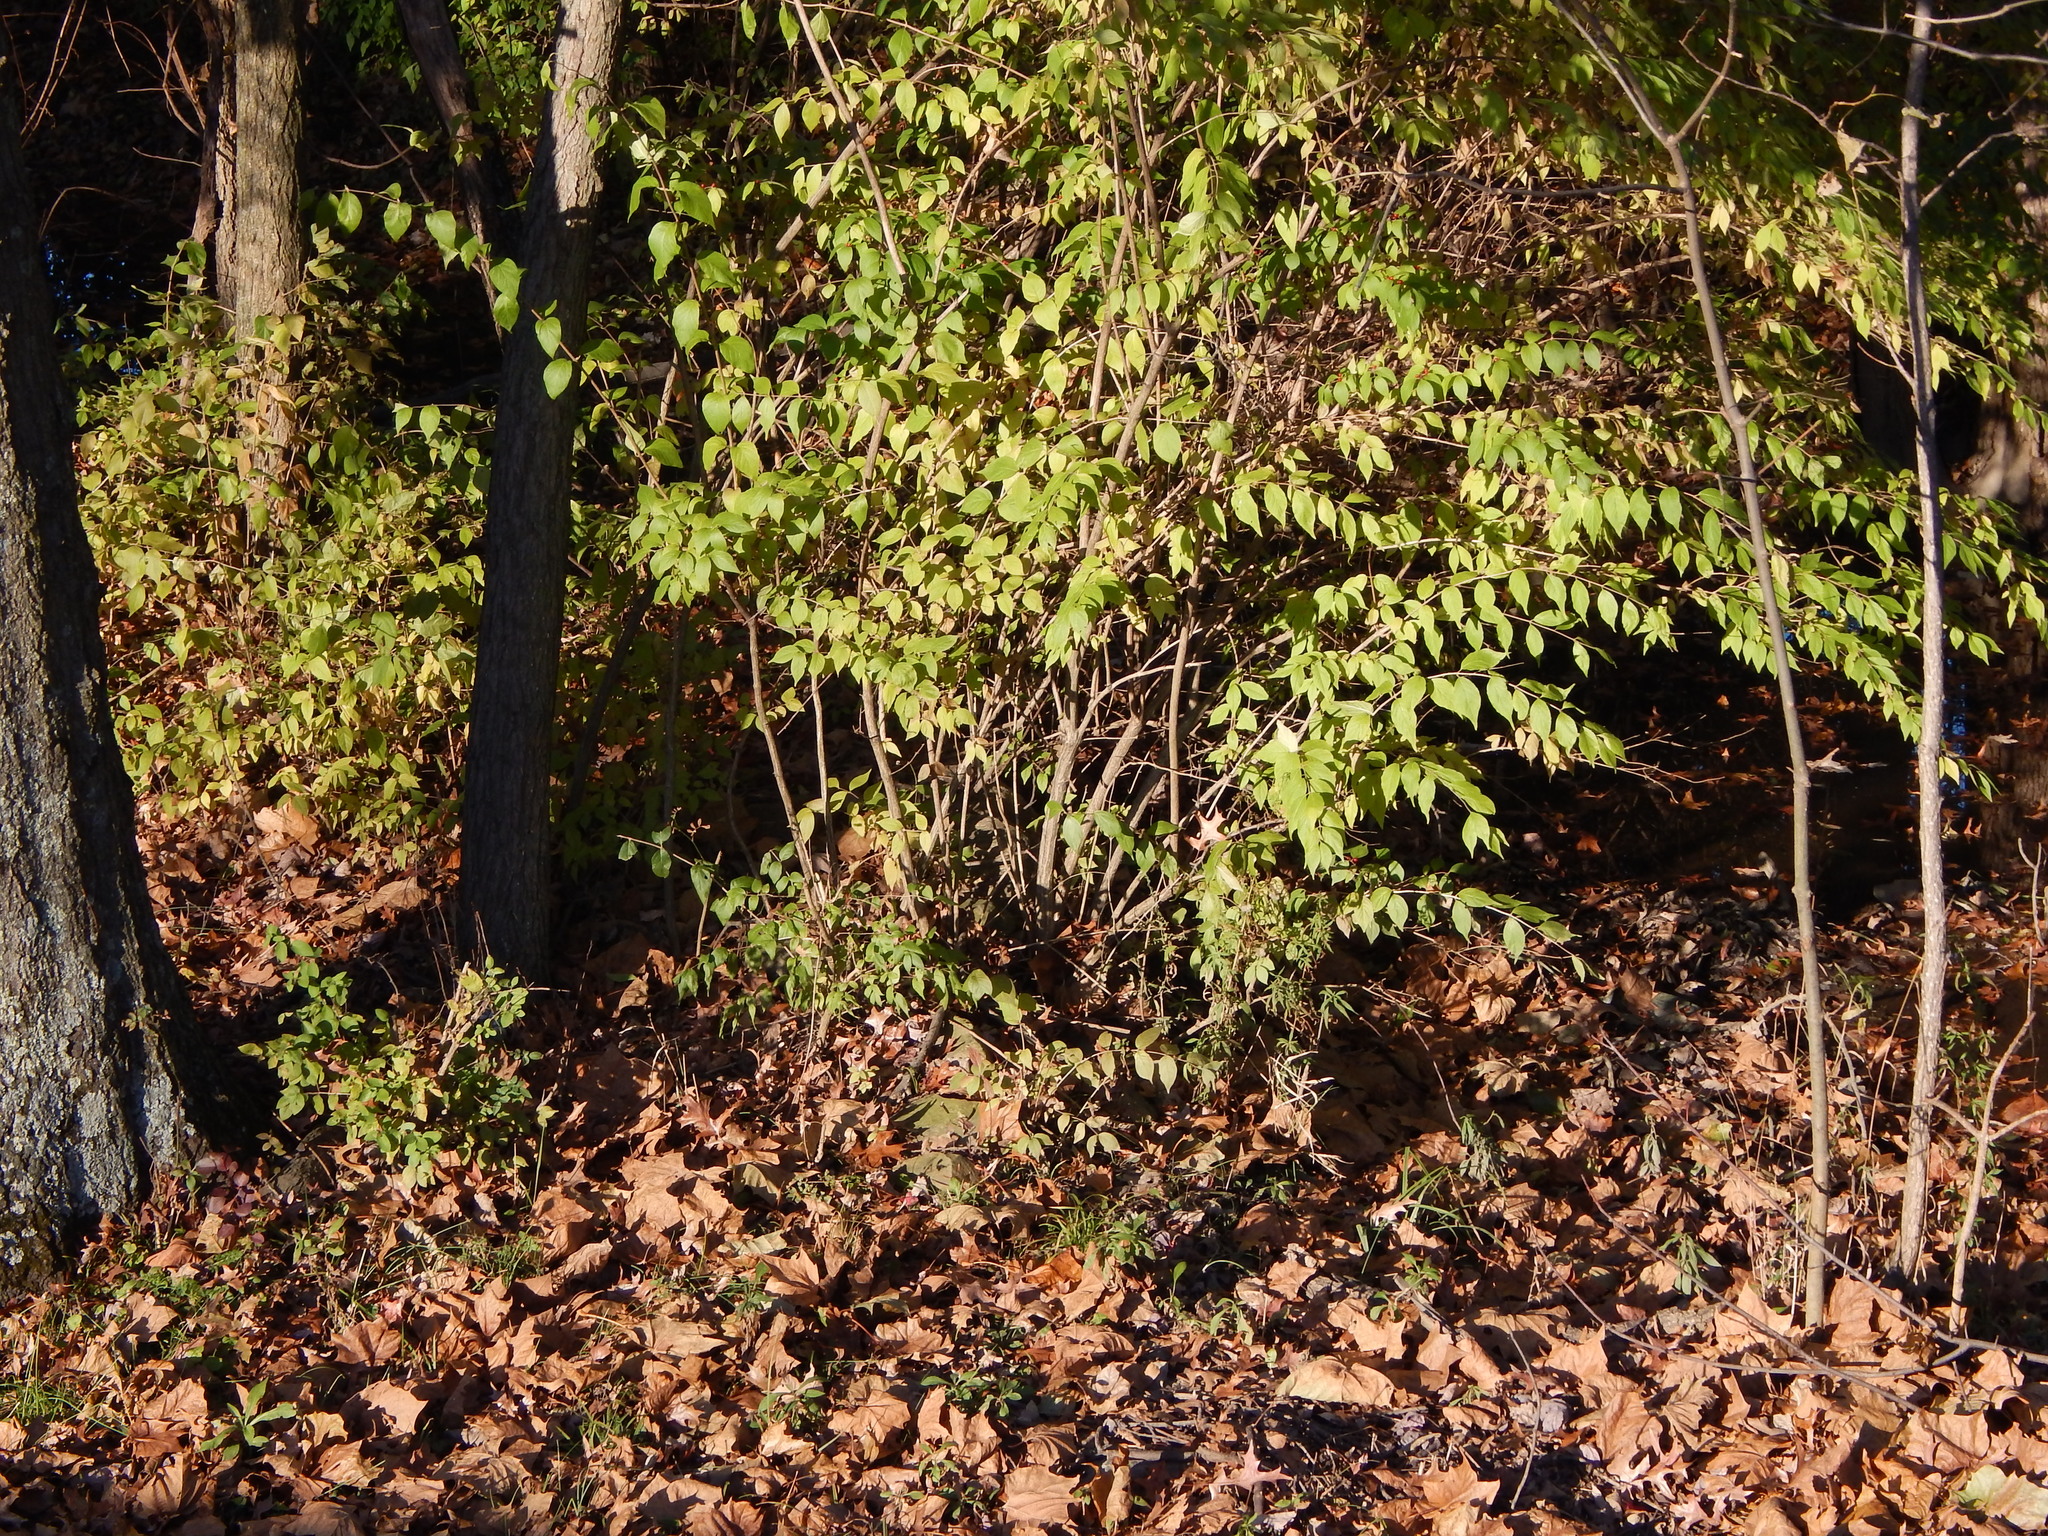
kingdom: Plantae
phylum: Tracheophyta
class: Magnoliopsida
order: Dipsacales
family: Caprifoliaceae
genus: Lonicera
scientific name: Lonicera maackii
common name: Amur honeysuckle
